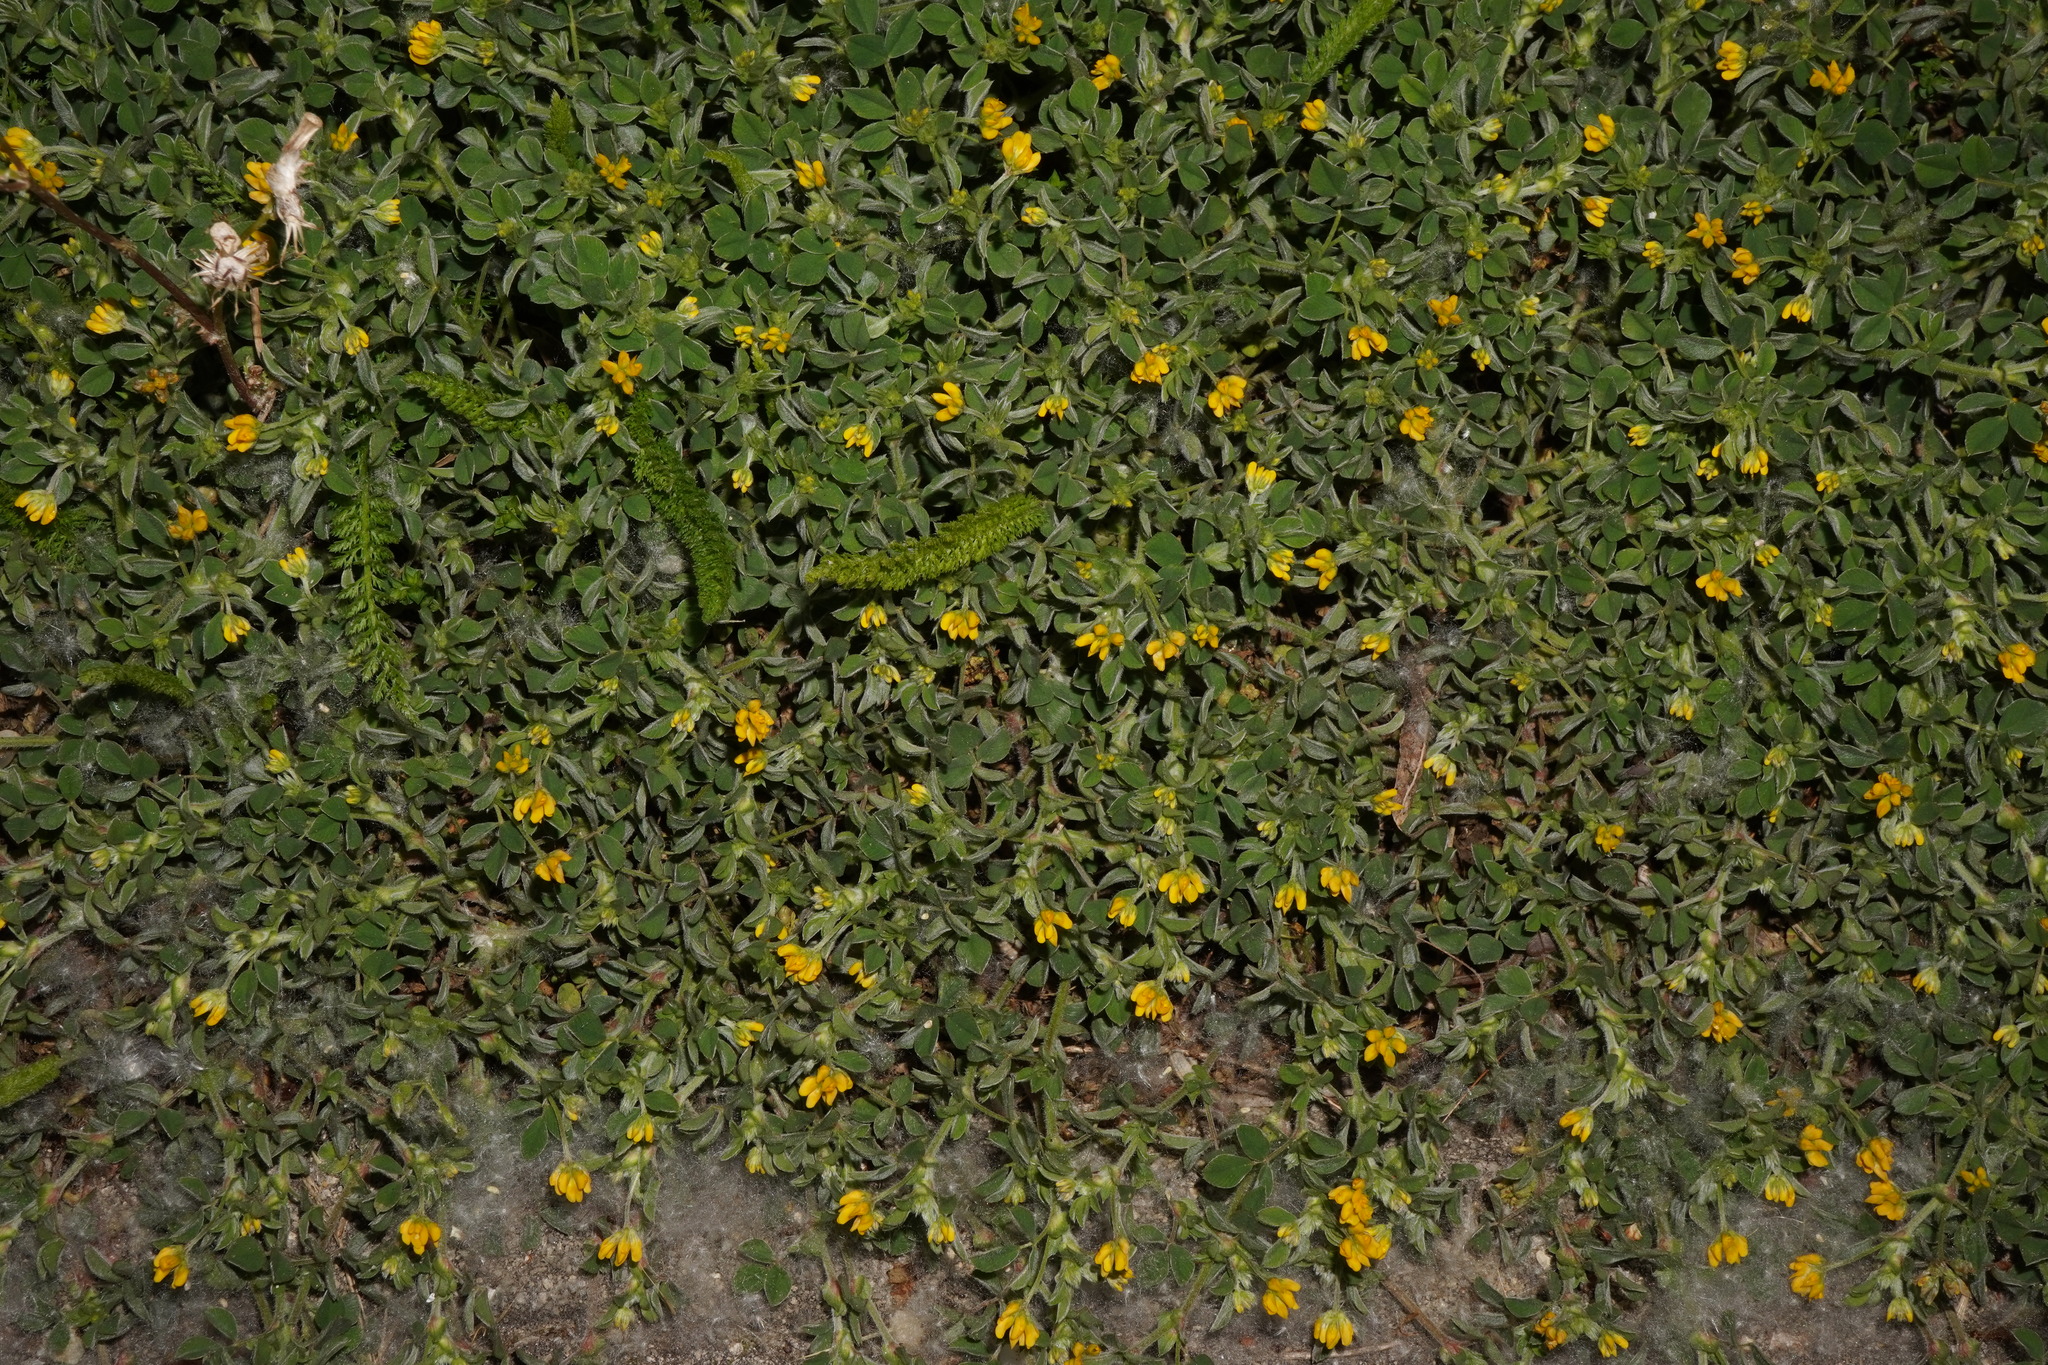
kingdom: Plantae
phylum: Tracheophyta
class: Magnoliopsida
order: Fabales
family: Fabaceae
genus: Medicago
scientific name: Medicago minima
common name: Little bur-clover
